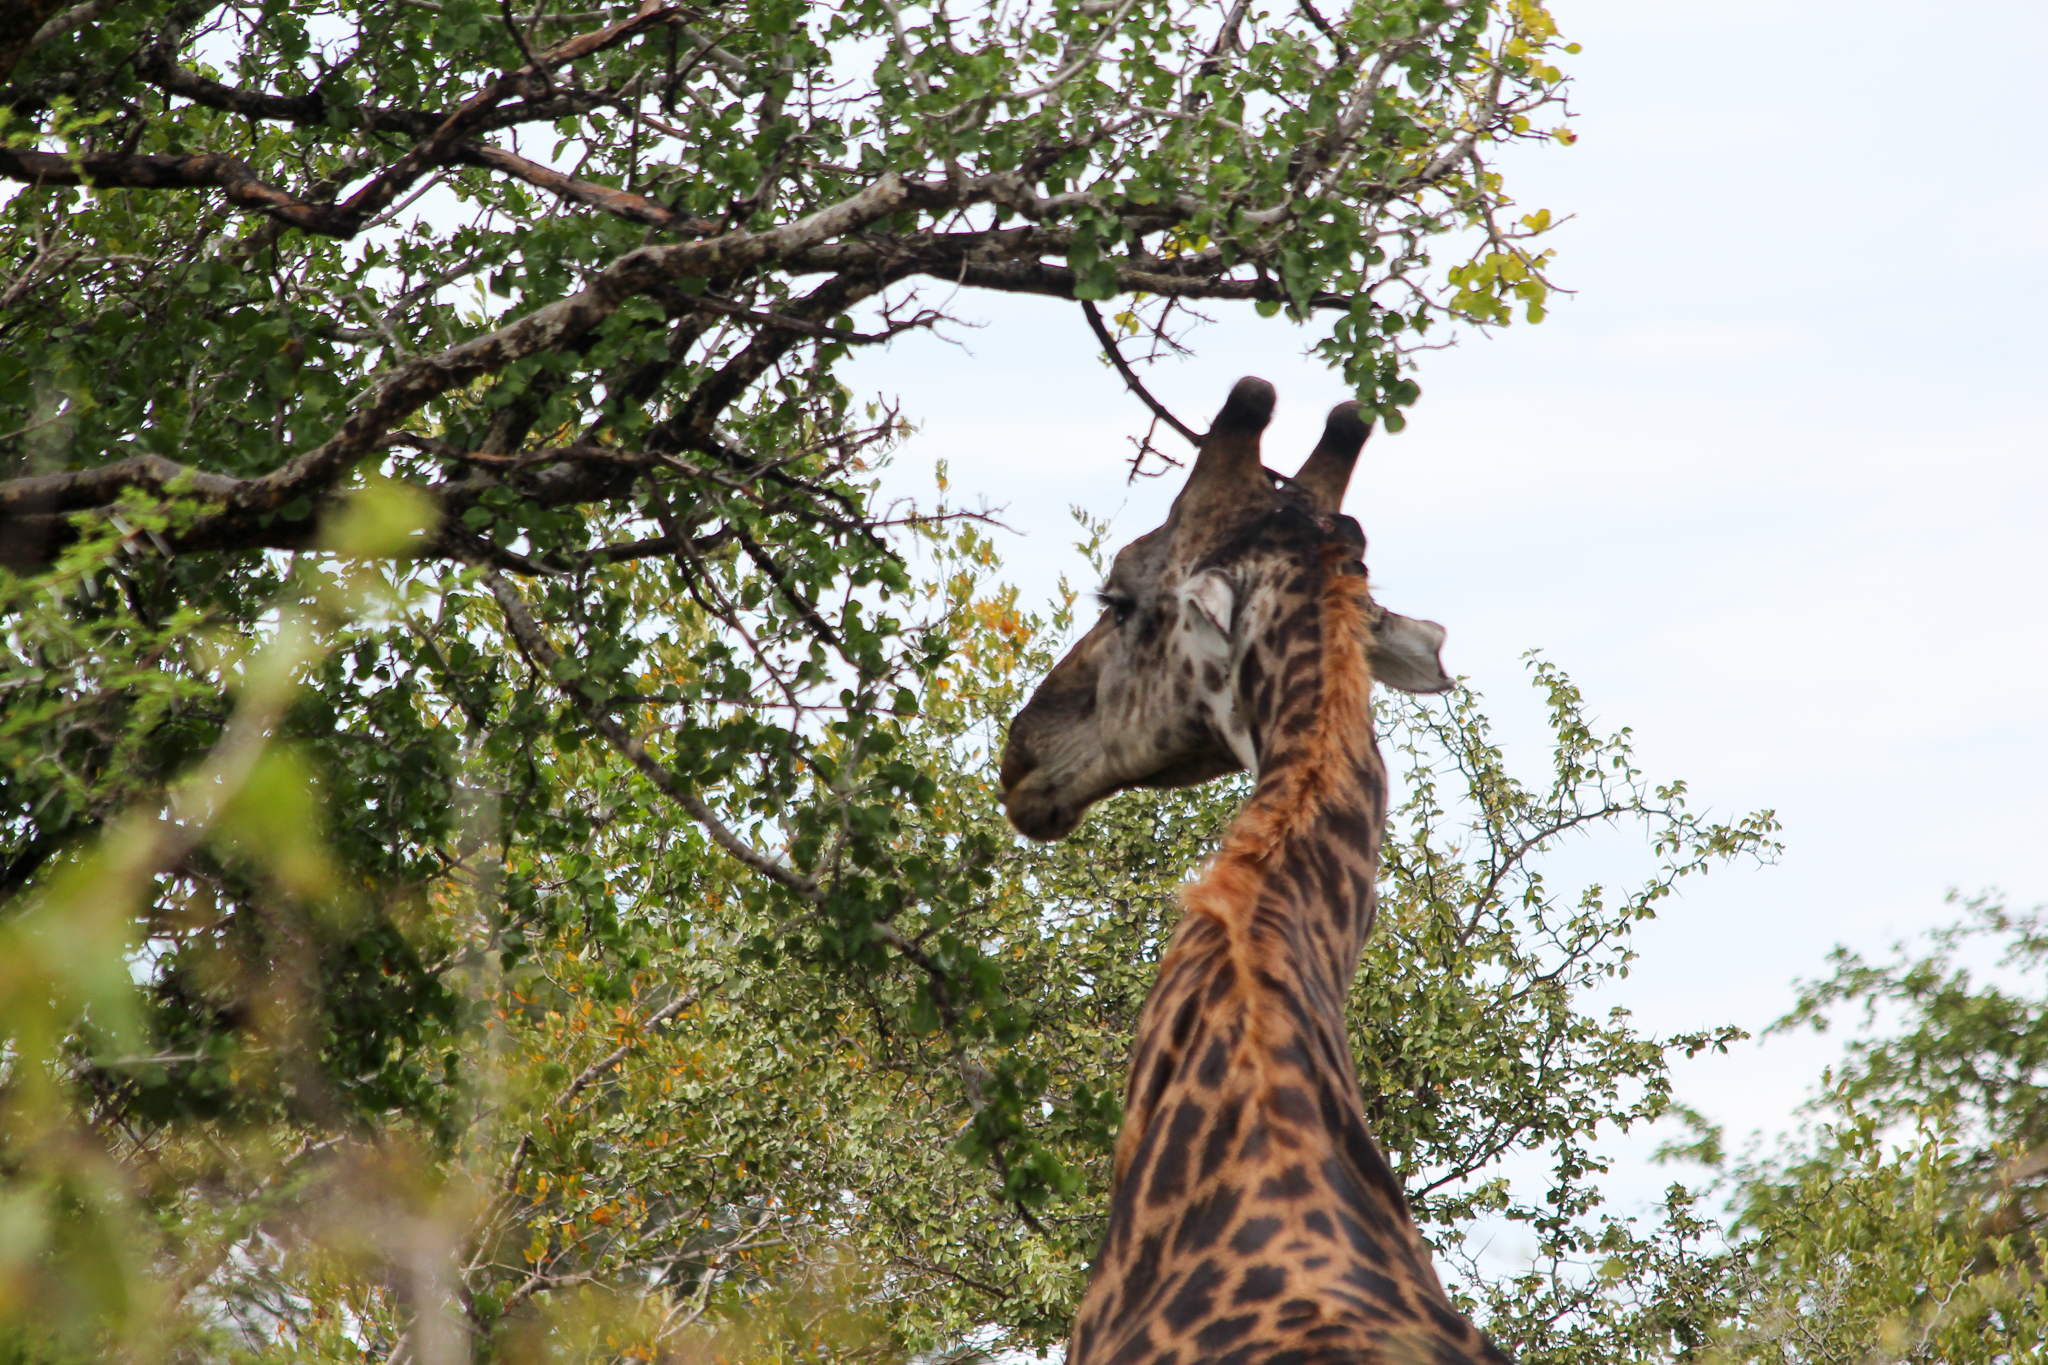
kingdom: Animalia
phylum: Chordata
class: Mammalia
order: Artiodactyla
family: Giraffidae
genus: Giraffa
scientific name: Giraffa giraffa
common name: Southern giraffe
